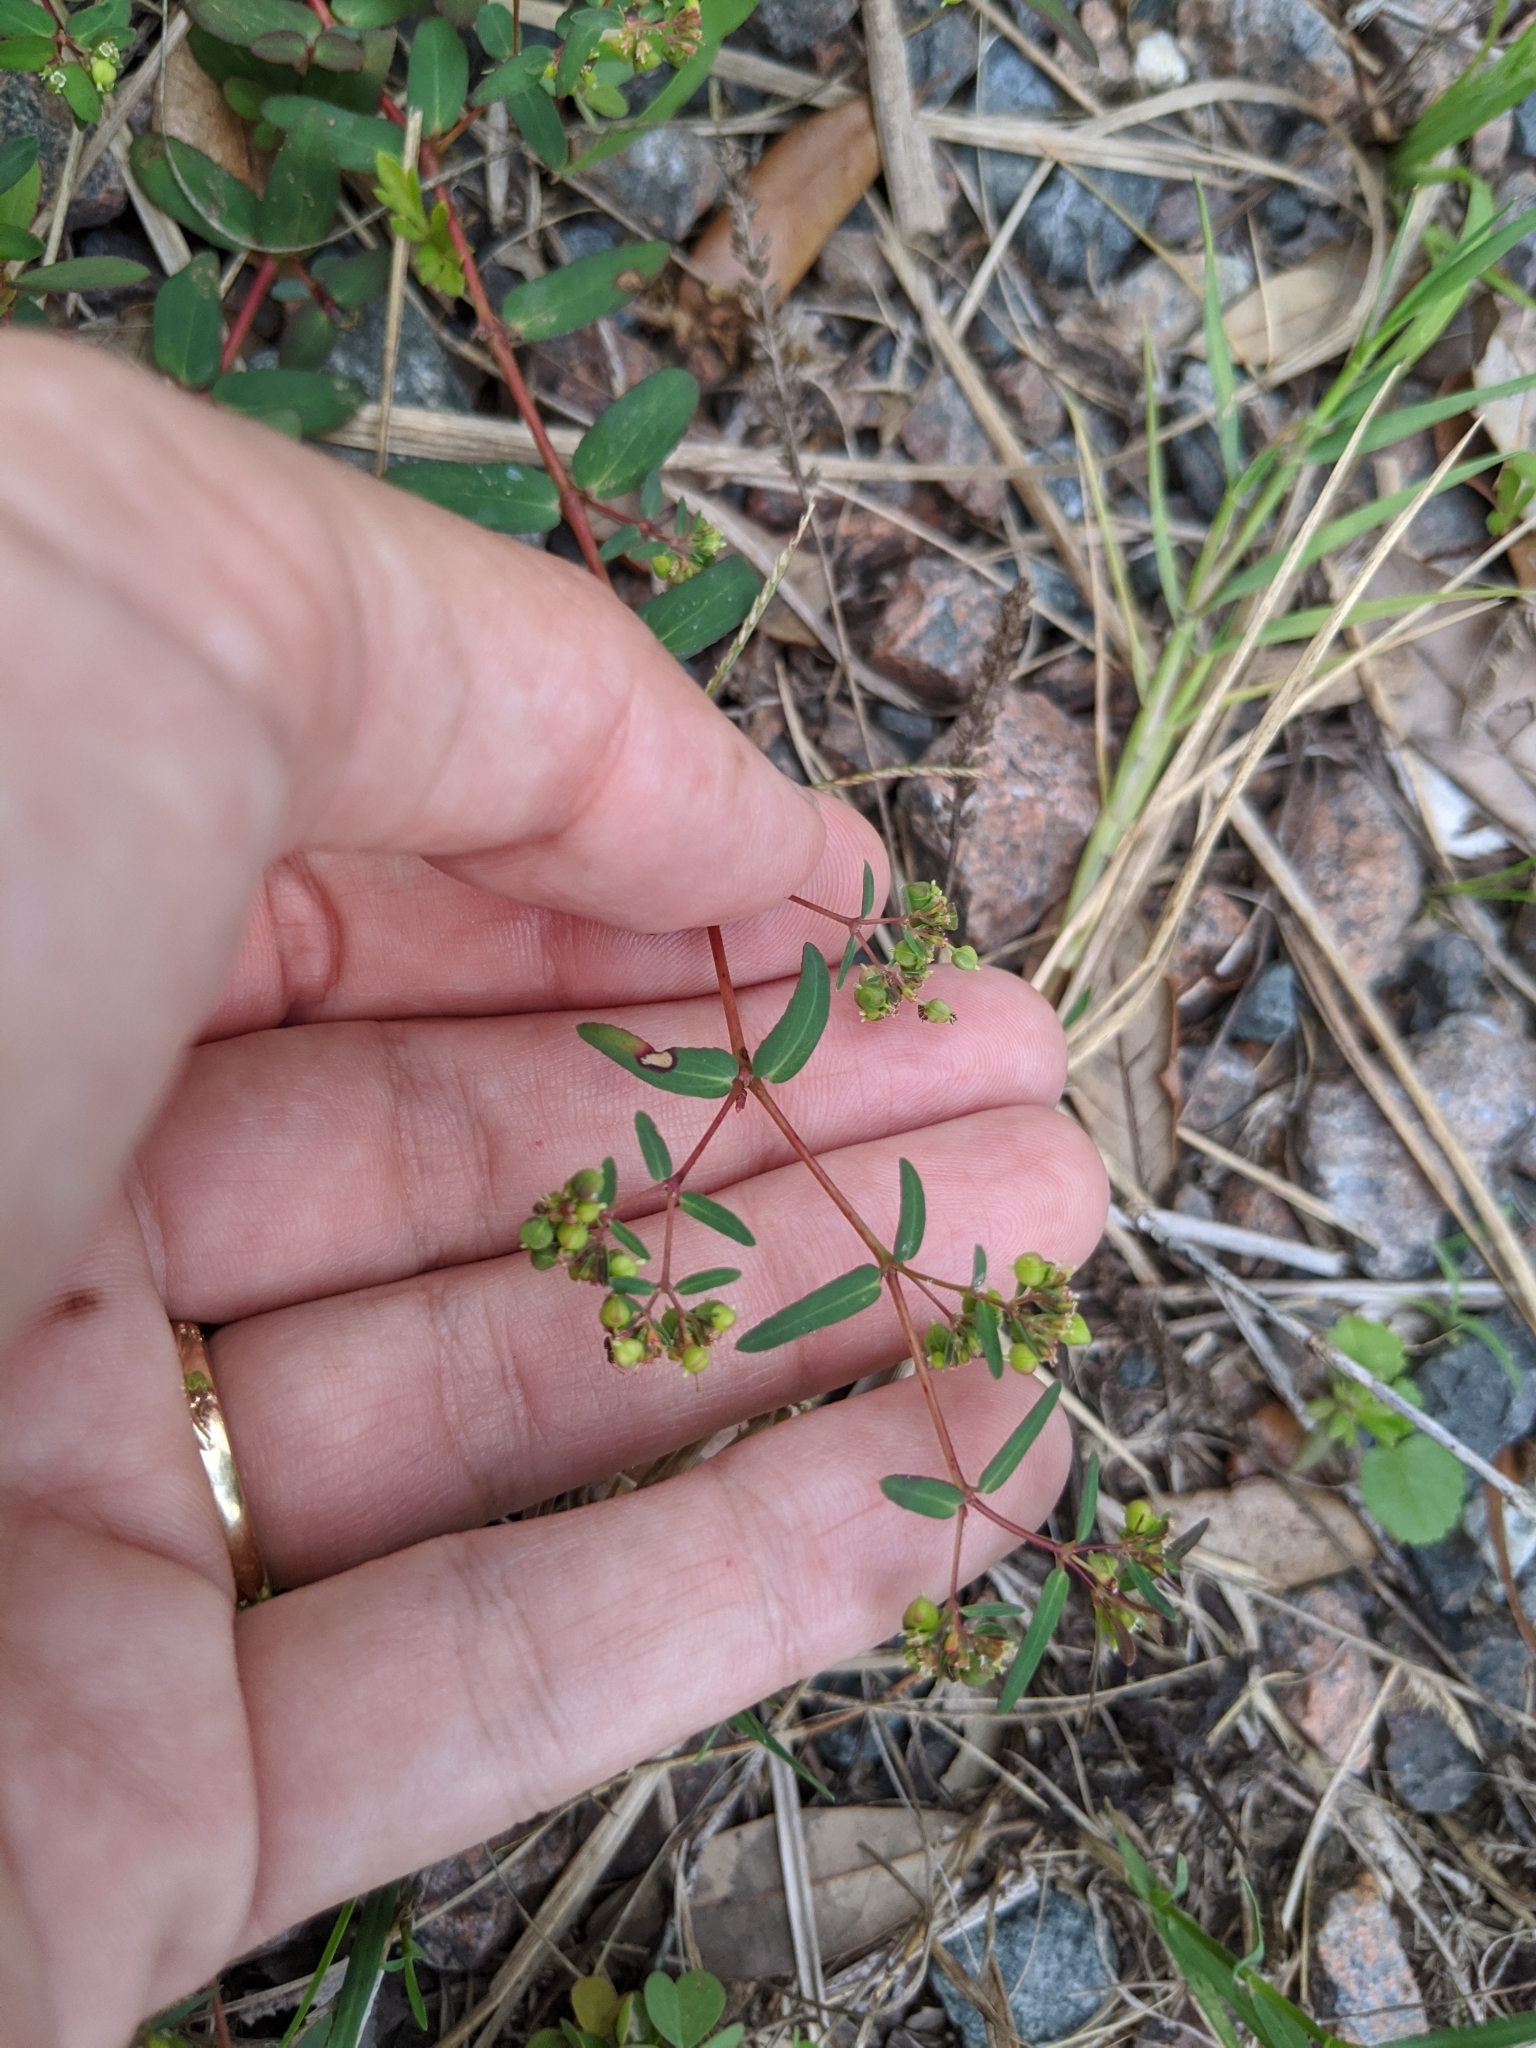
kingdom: Plantae
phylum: Tracheophyta
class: Magnoliopsida
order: Malpighiales
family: Euphorbiaceae
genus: Euphorbia
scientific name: Euphorbia hyssopifolia
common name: Hyssopleaf sandmat
